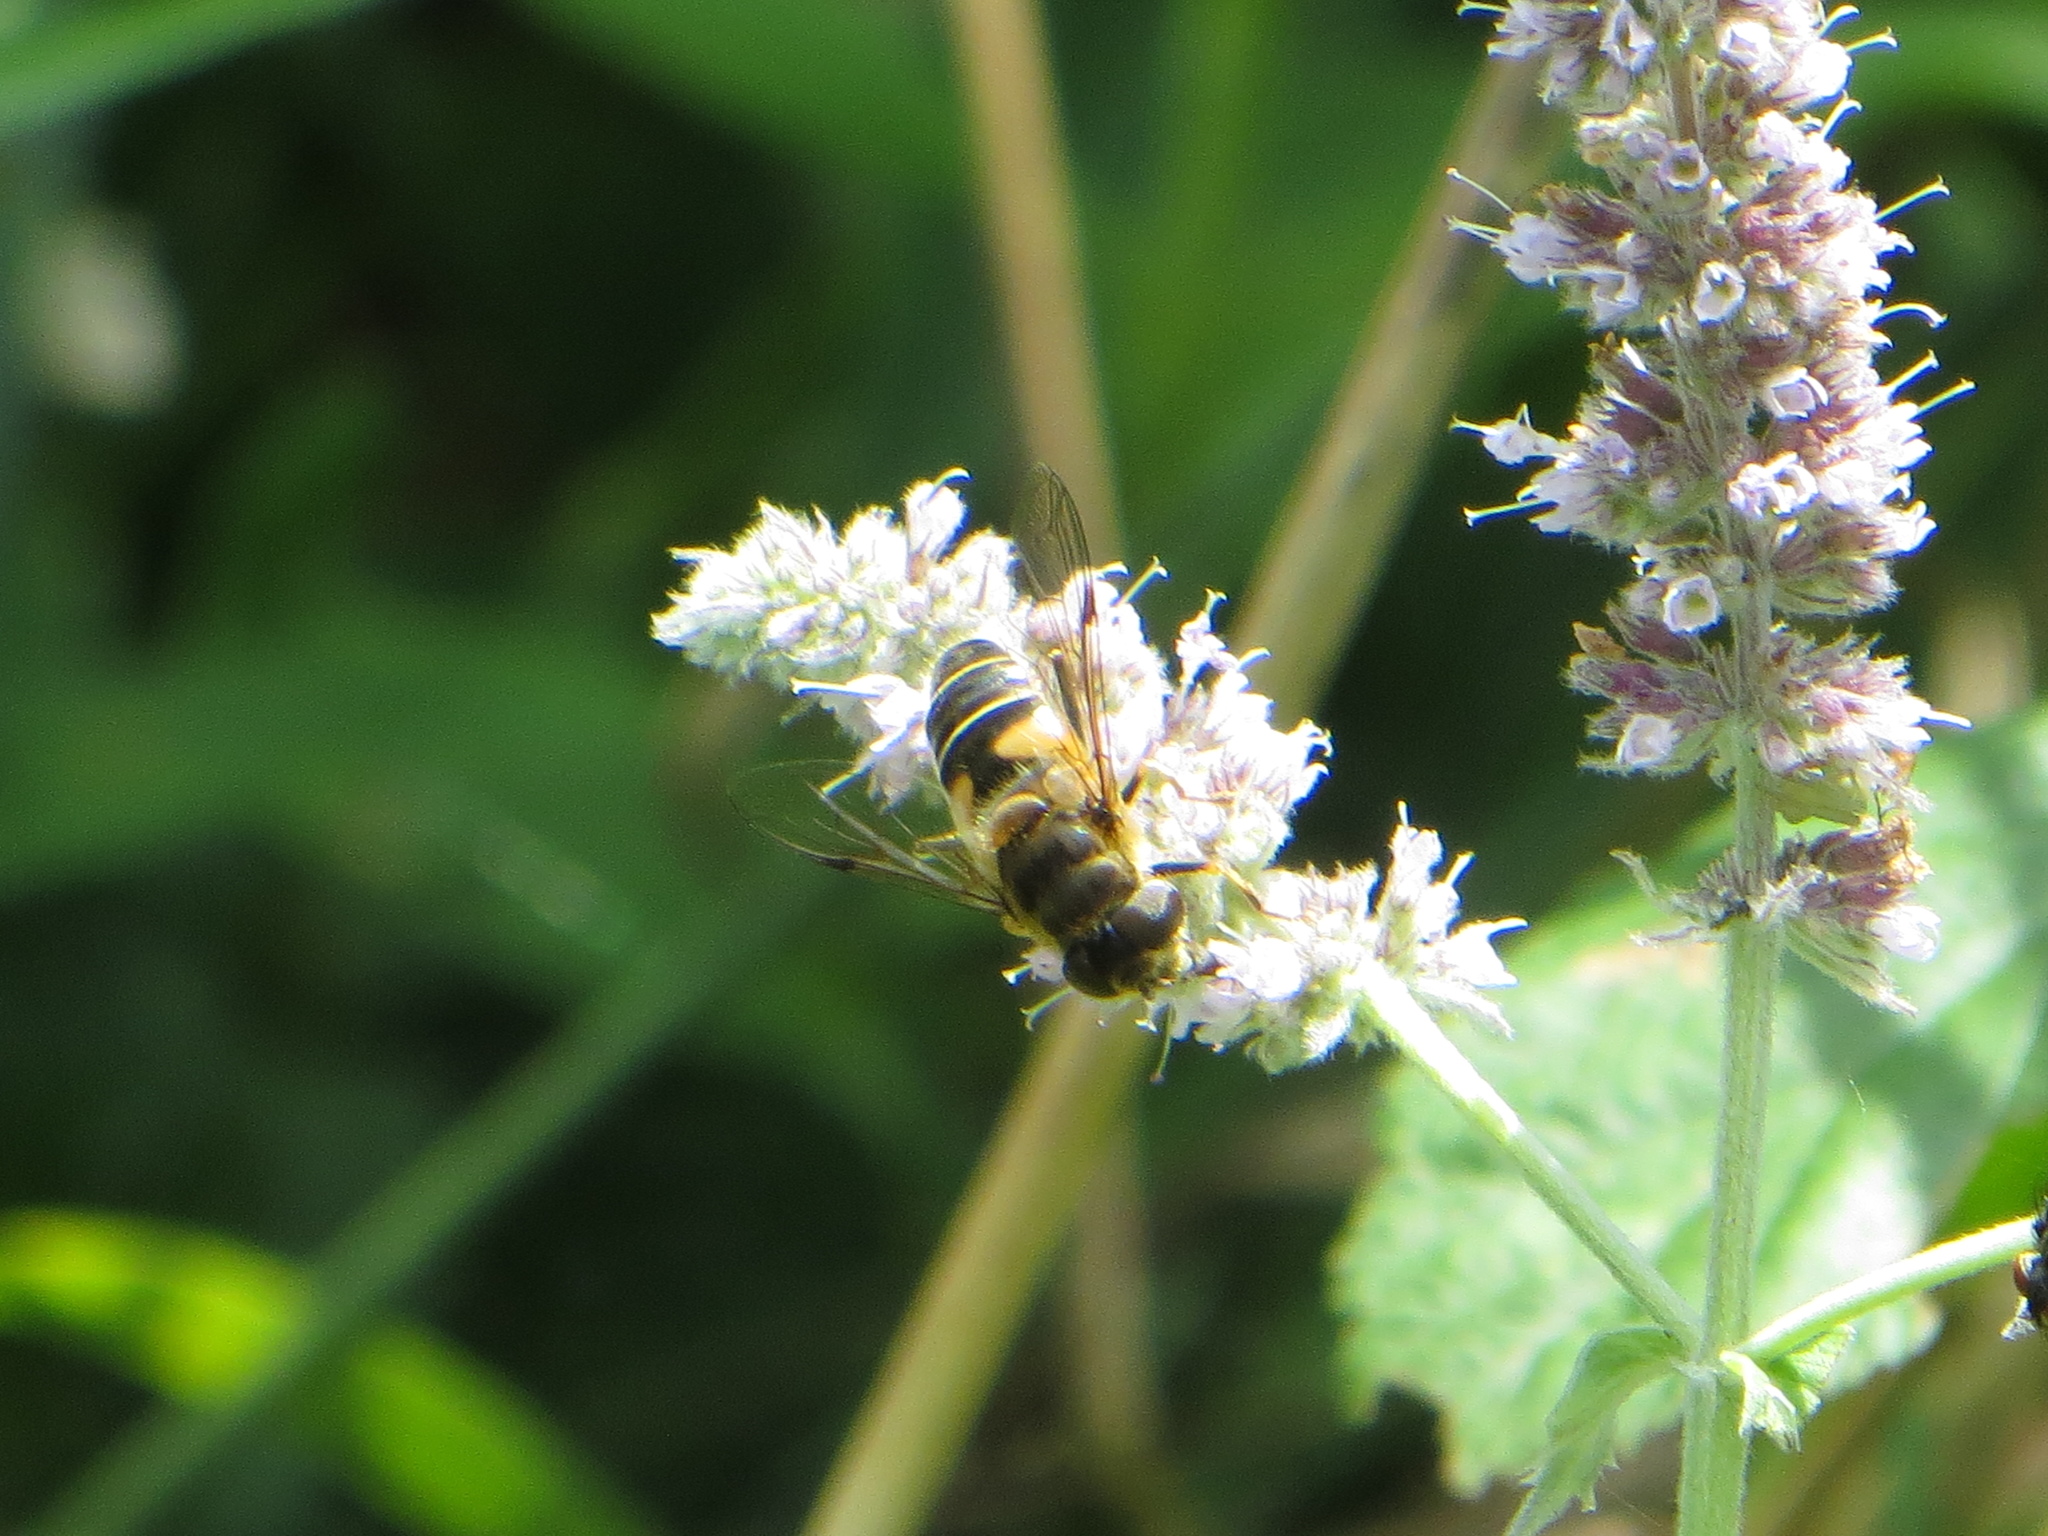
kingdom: Animalia
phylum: Arthropoda
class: Insecta
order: Diptera
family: Syrphidae
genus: Eristalis
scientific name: Eristalis pertinax
